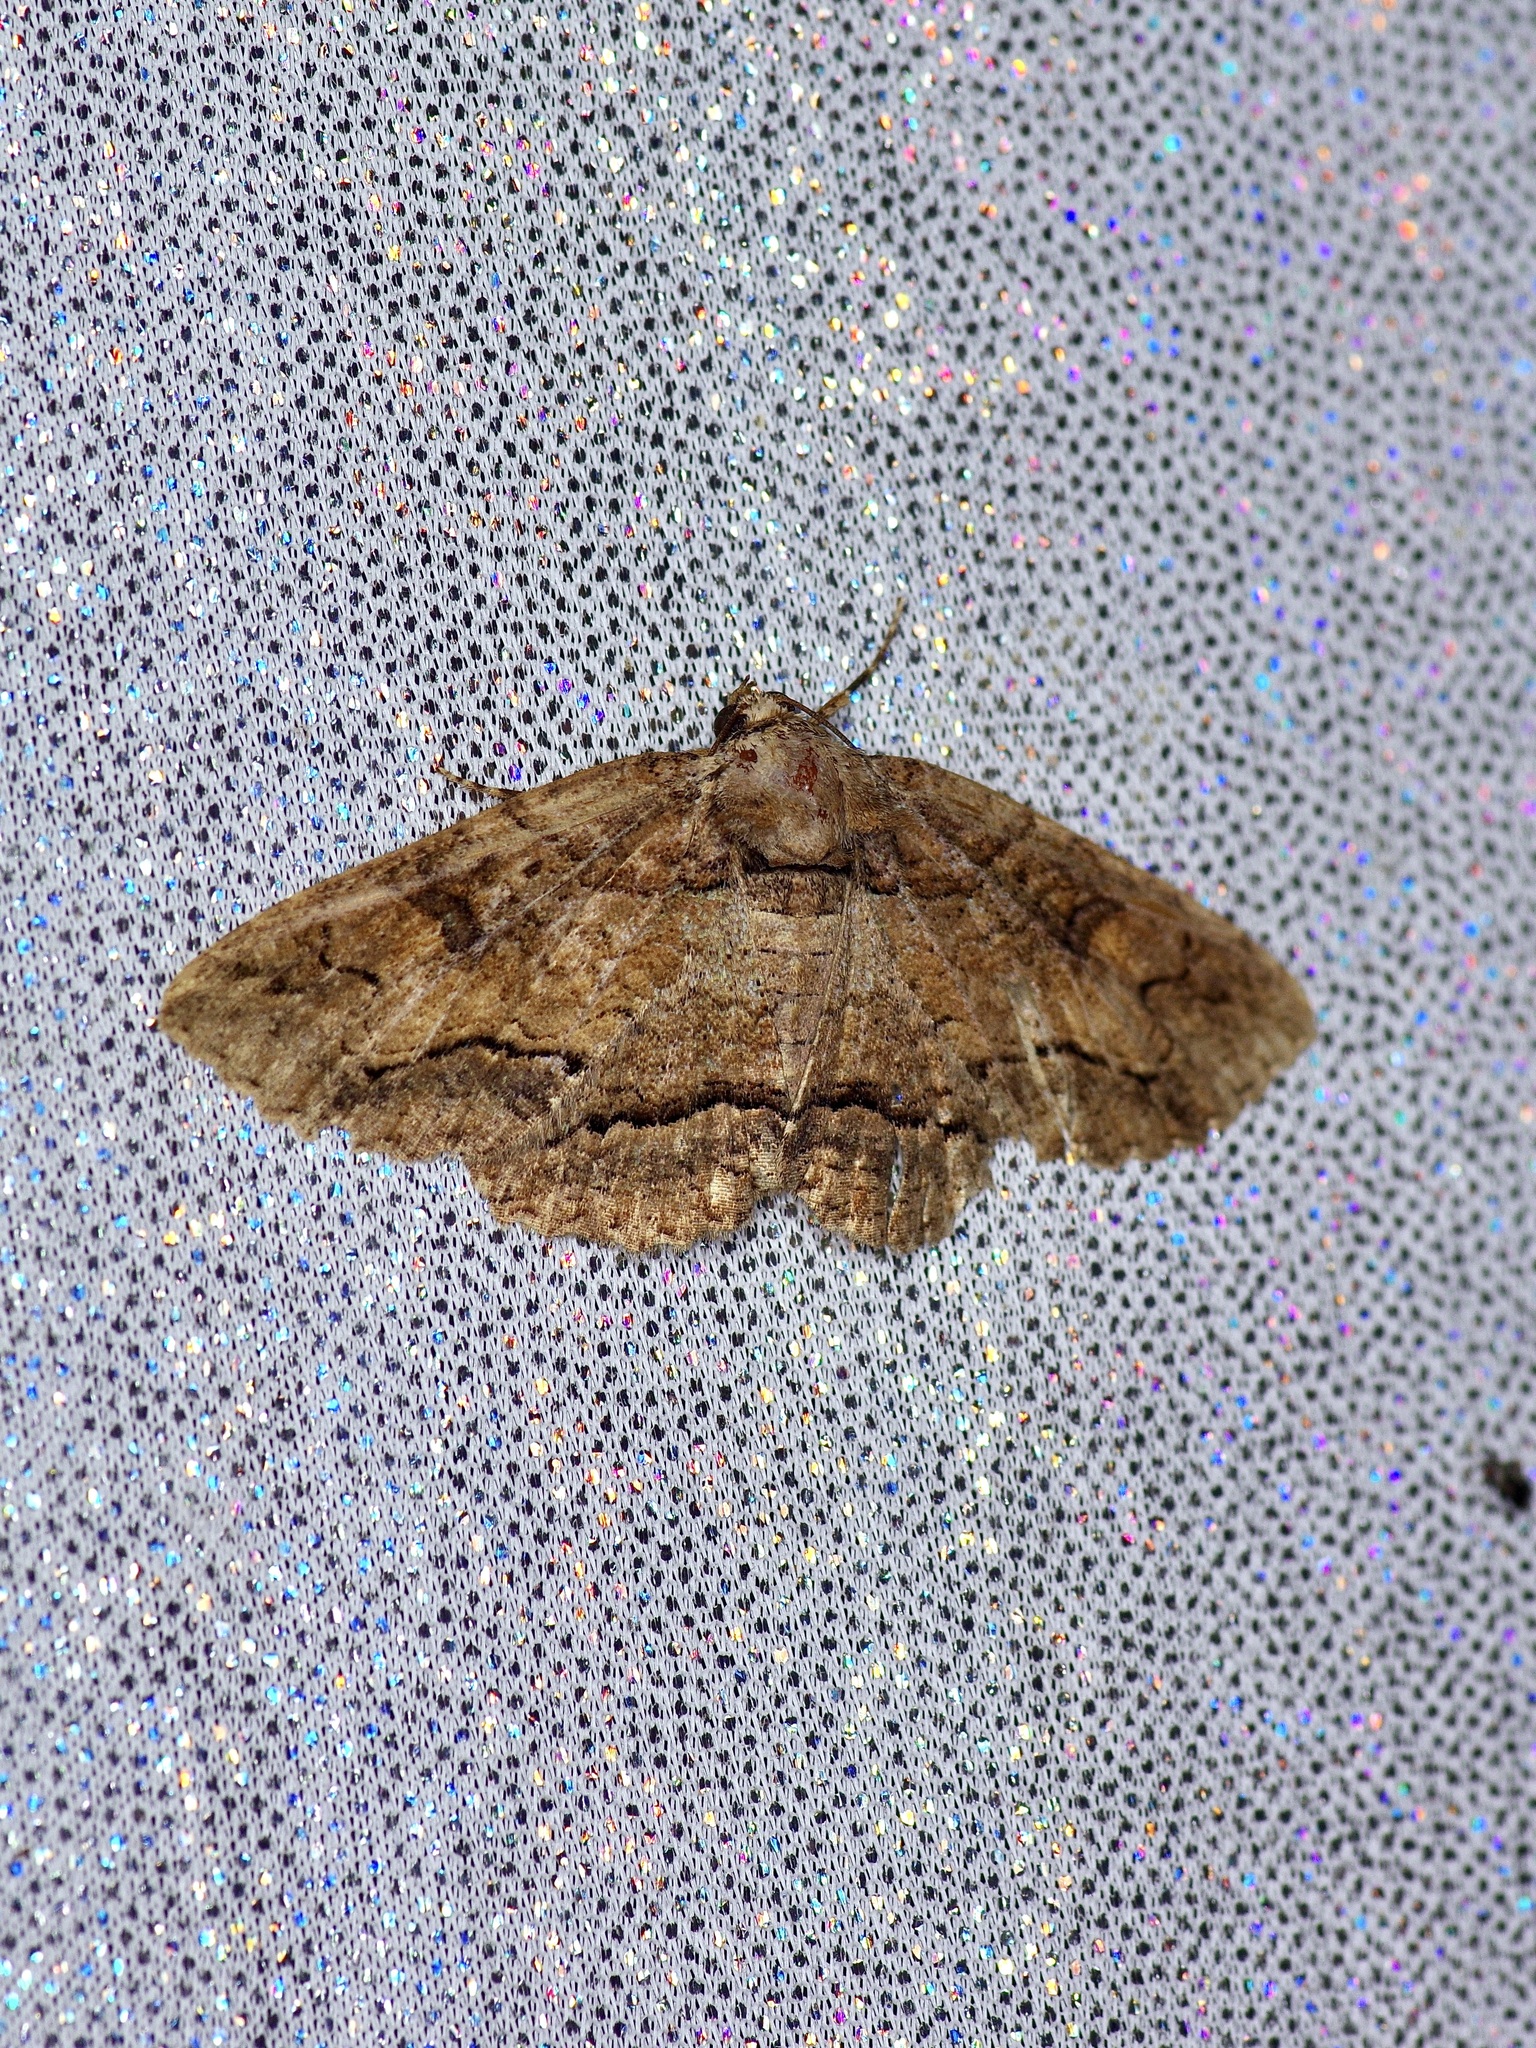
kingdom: Animalia
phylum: Arthropoda
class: Insecta
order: Lepidoptera
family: Erebidae
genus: Zale
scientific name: Zale galbanata
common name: Maple zale
